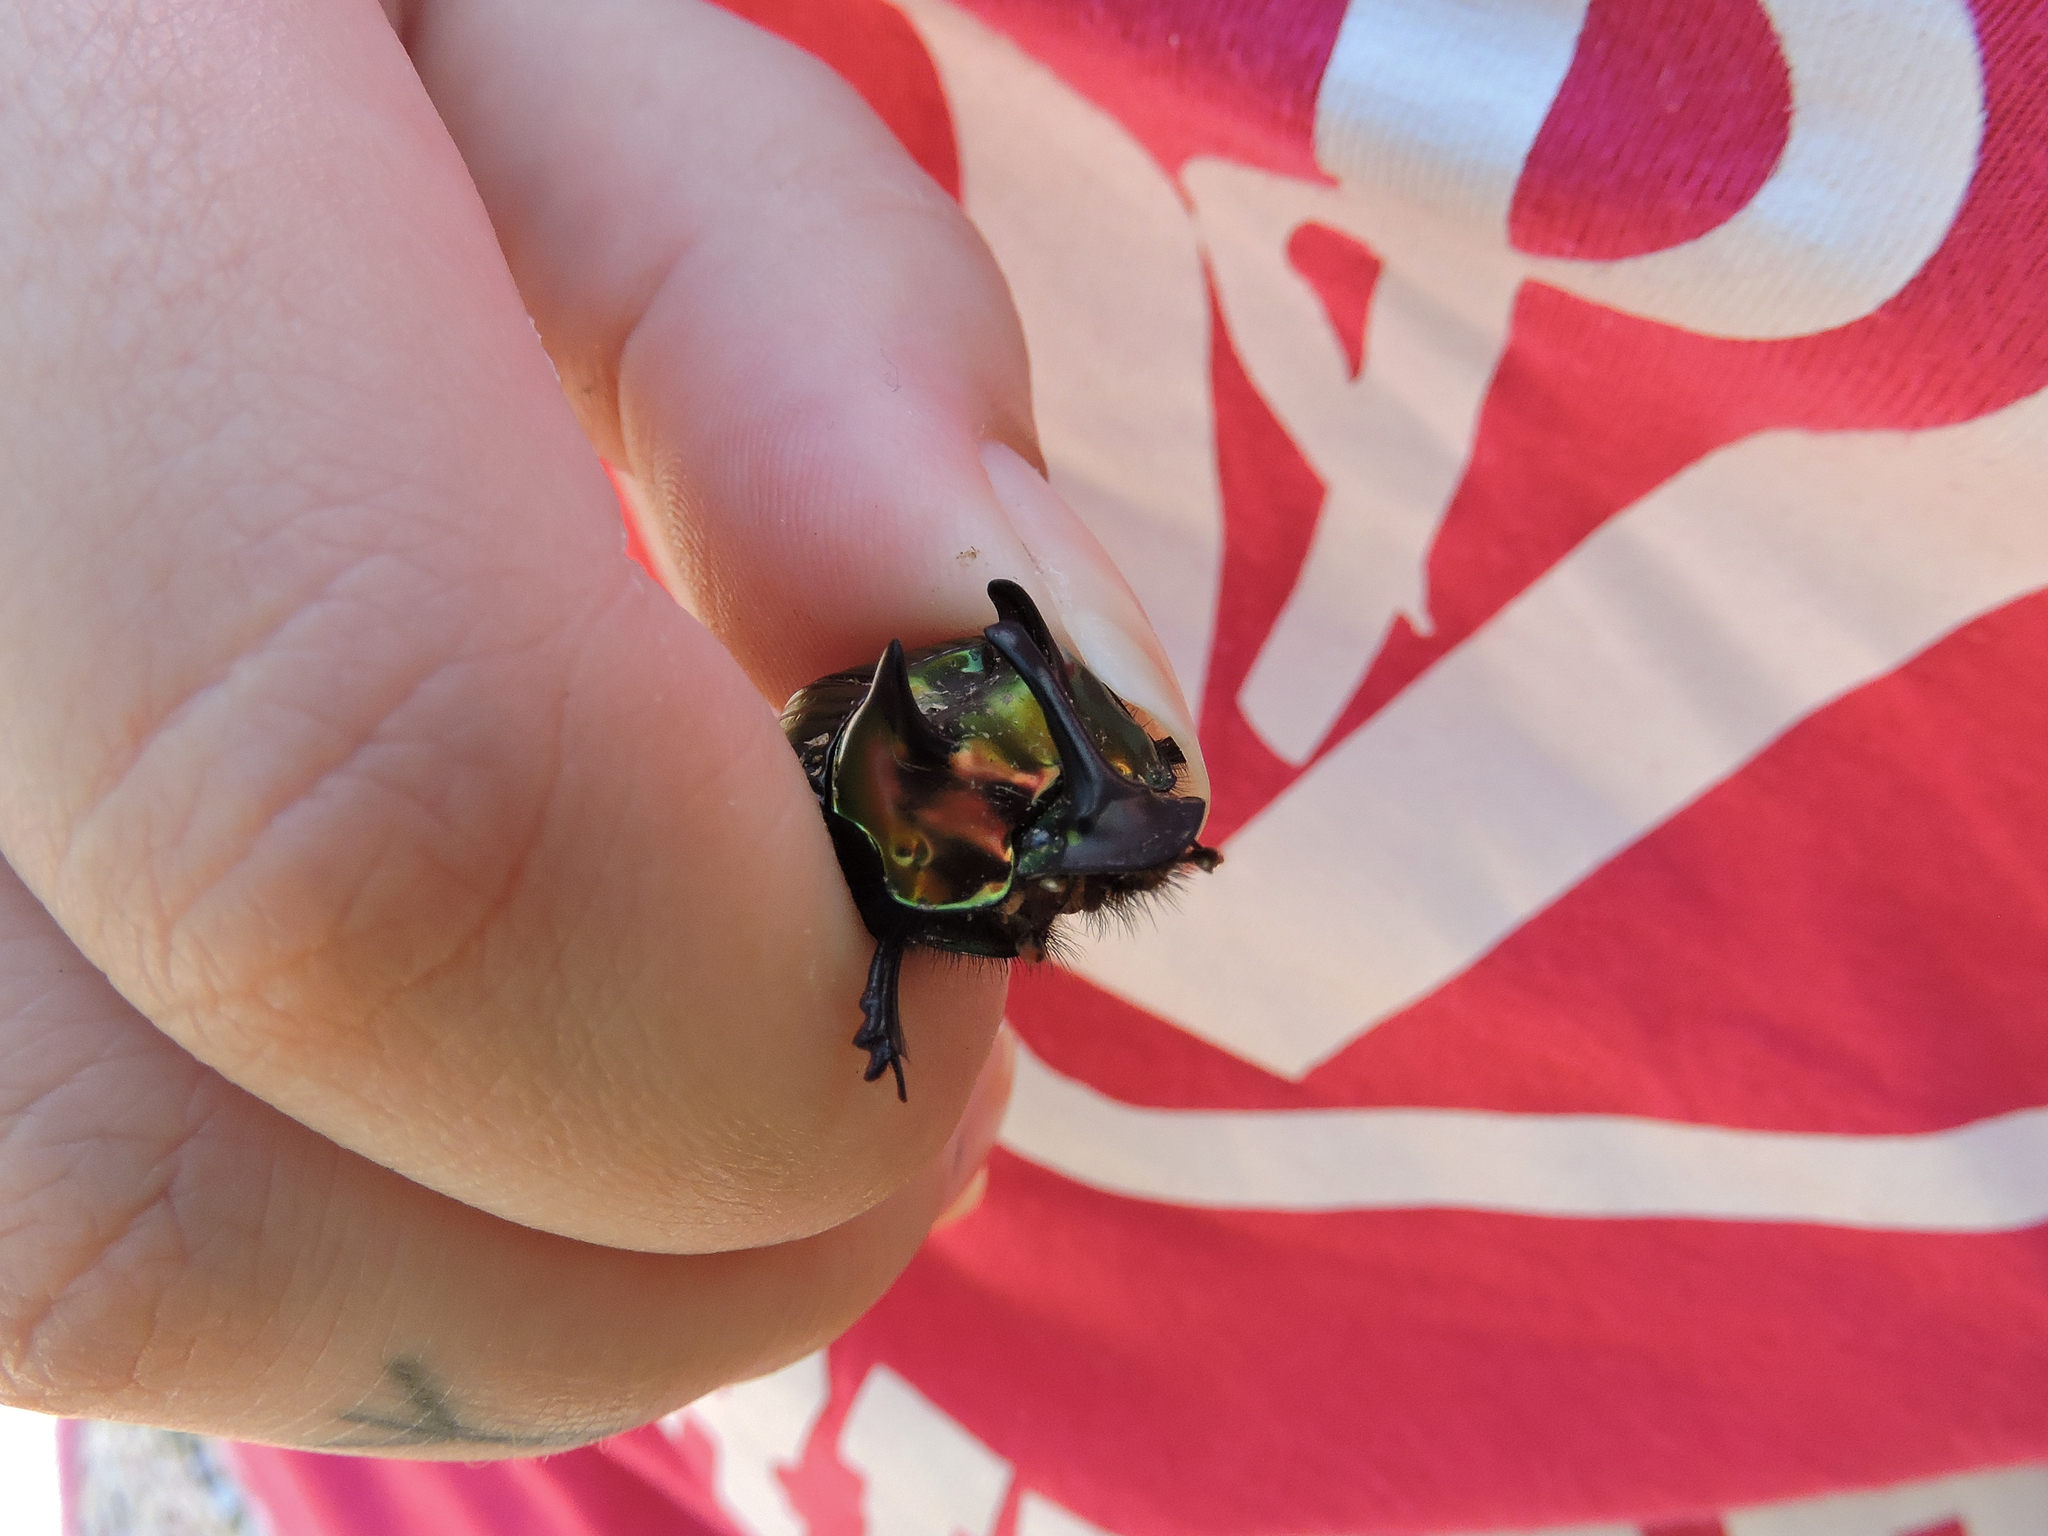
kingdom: Animalia
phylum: Arthropoda
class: Insecta
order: Coleoptera
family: Scarabaeidae
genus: Phanaeus
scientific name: Phanaeus splendidulus
